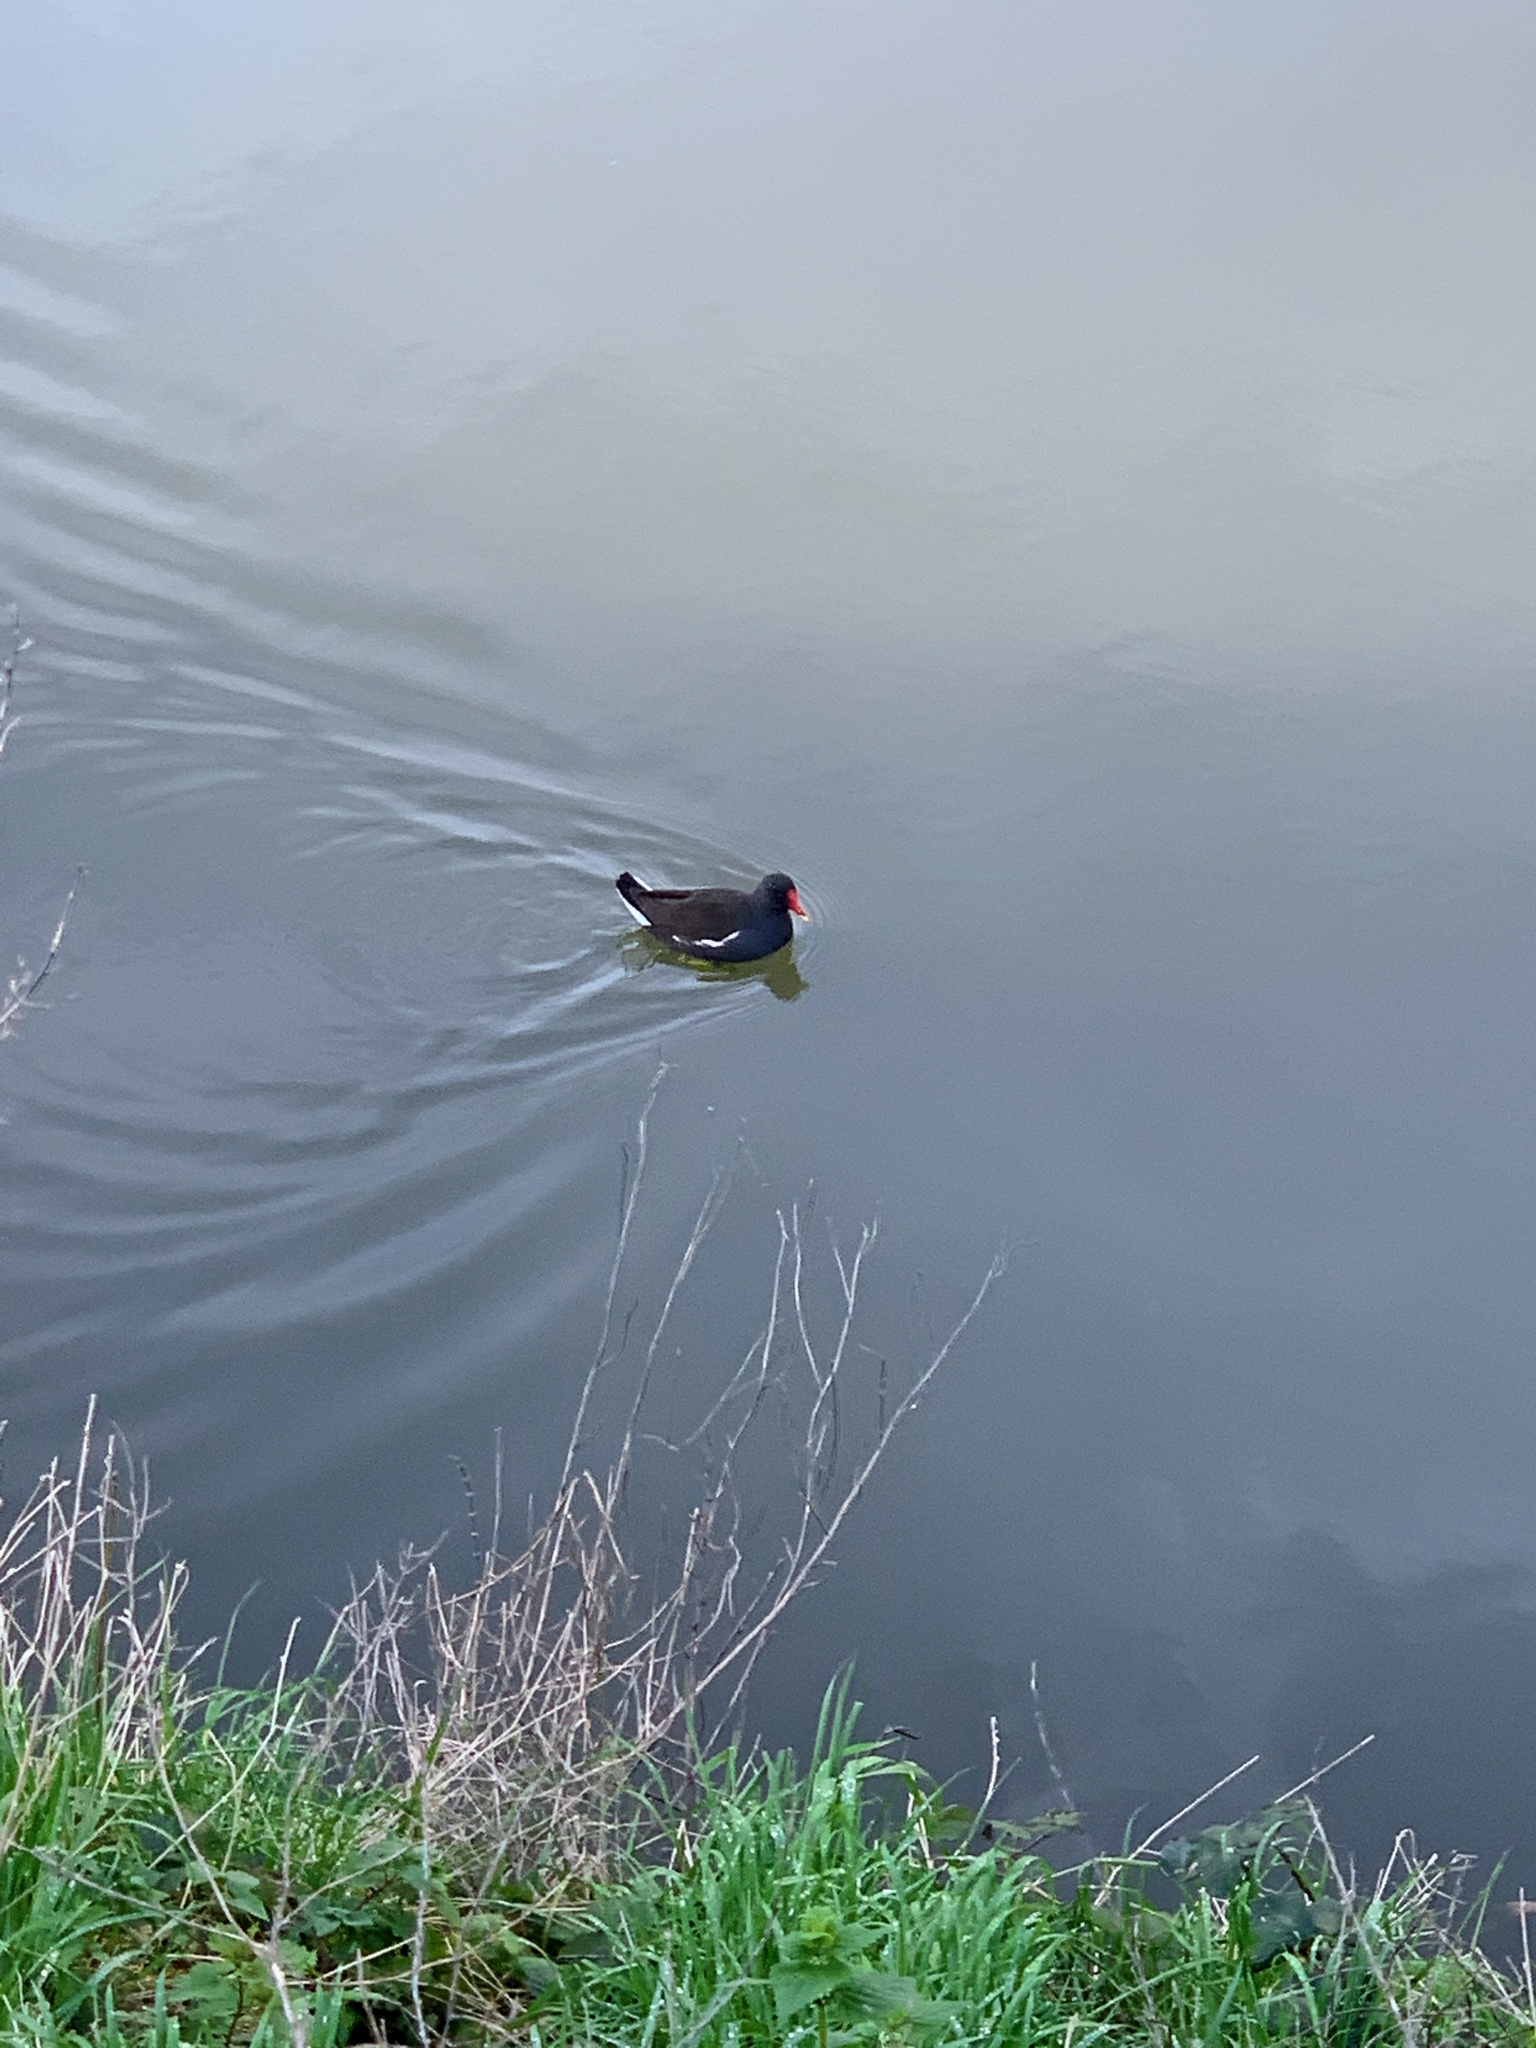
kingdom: Animalia
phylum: Chordata
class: Aves
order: Gruiformes
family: Rallidae
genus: Gallinula
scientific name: Gallinula chloropus
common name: Common moorhen
